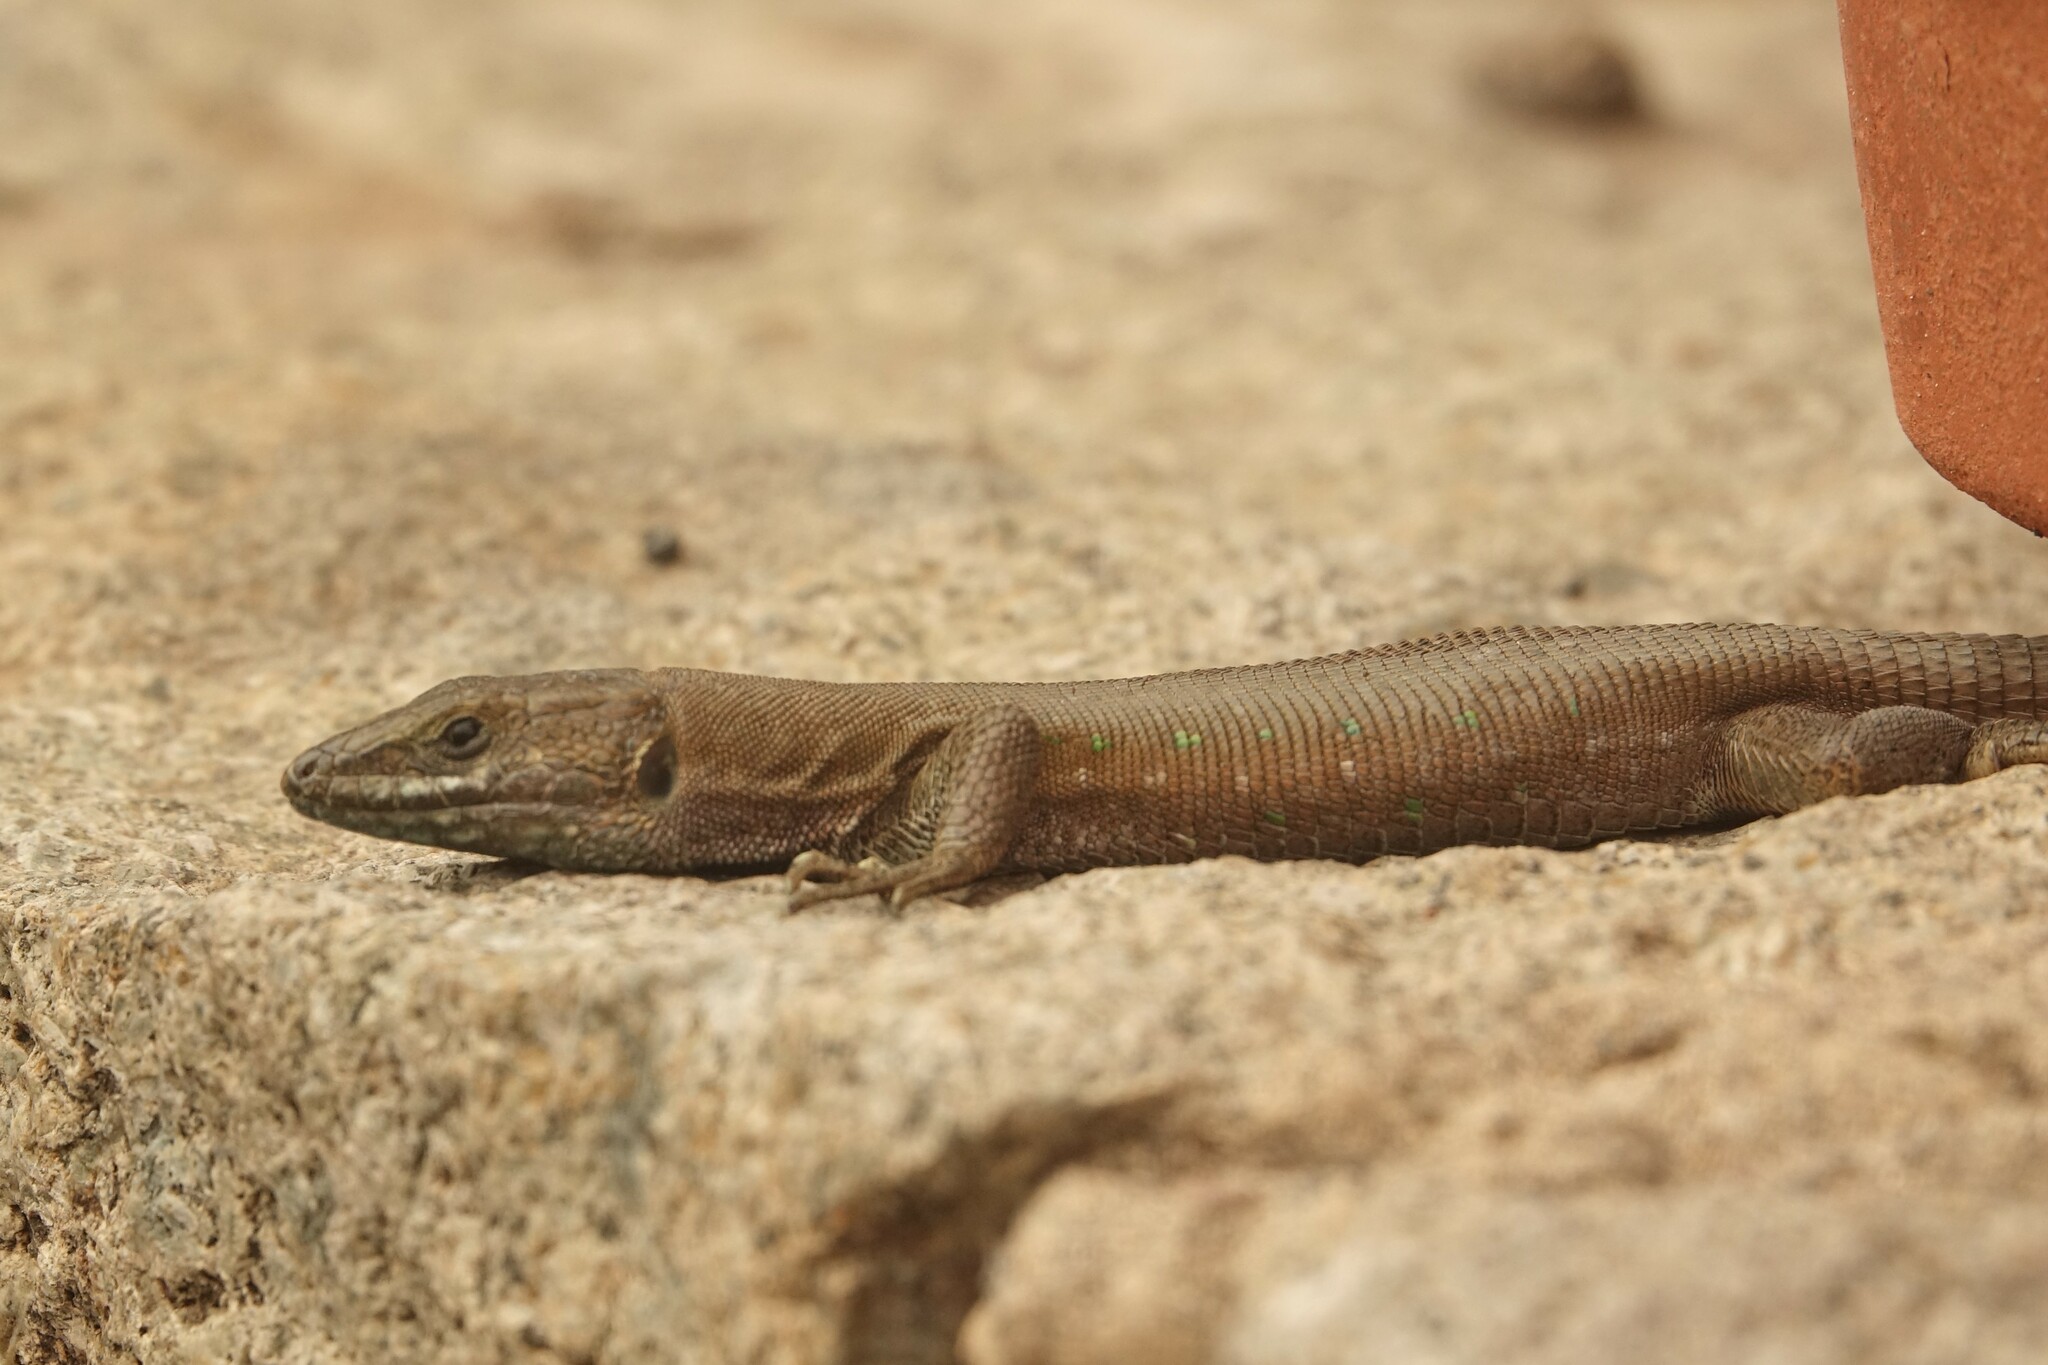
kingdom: Animalia
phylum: Chordata
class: Squamata
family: Lacertidae
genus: Gallotia
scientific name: Gallotia atlantica
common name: Atlantic lizard
